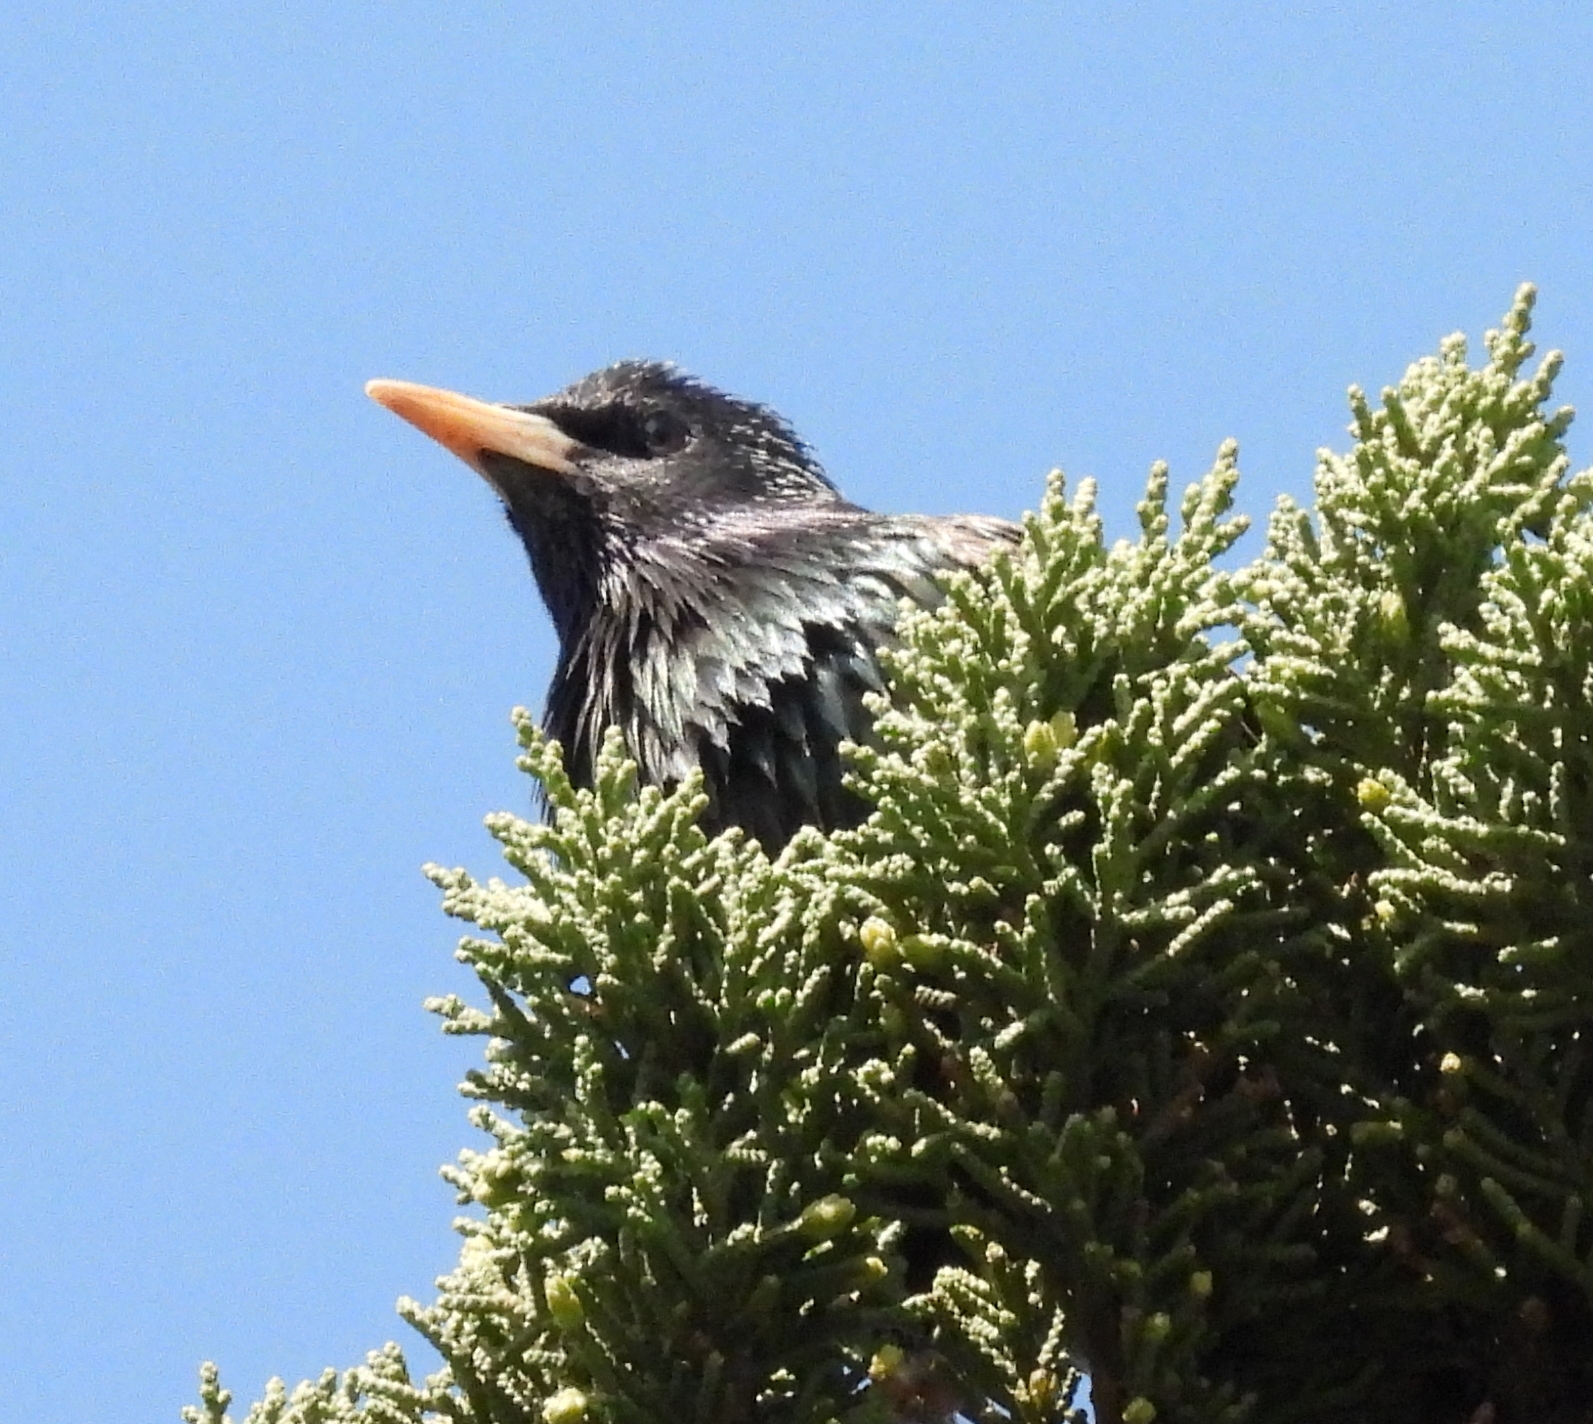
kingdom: Animalia
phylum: Chordata
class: Aves
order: Passeriformes
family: Sturnidae
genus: Sturnus
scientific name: Sturnus vulgaris
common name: Common starling
